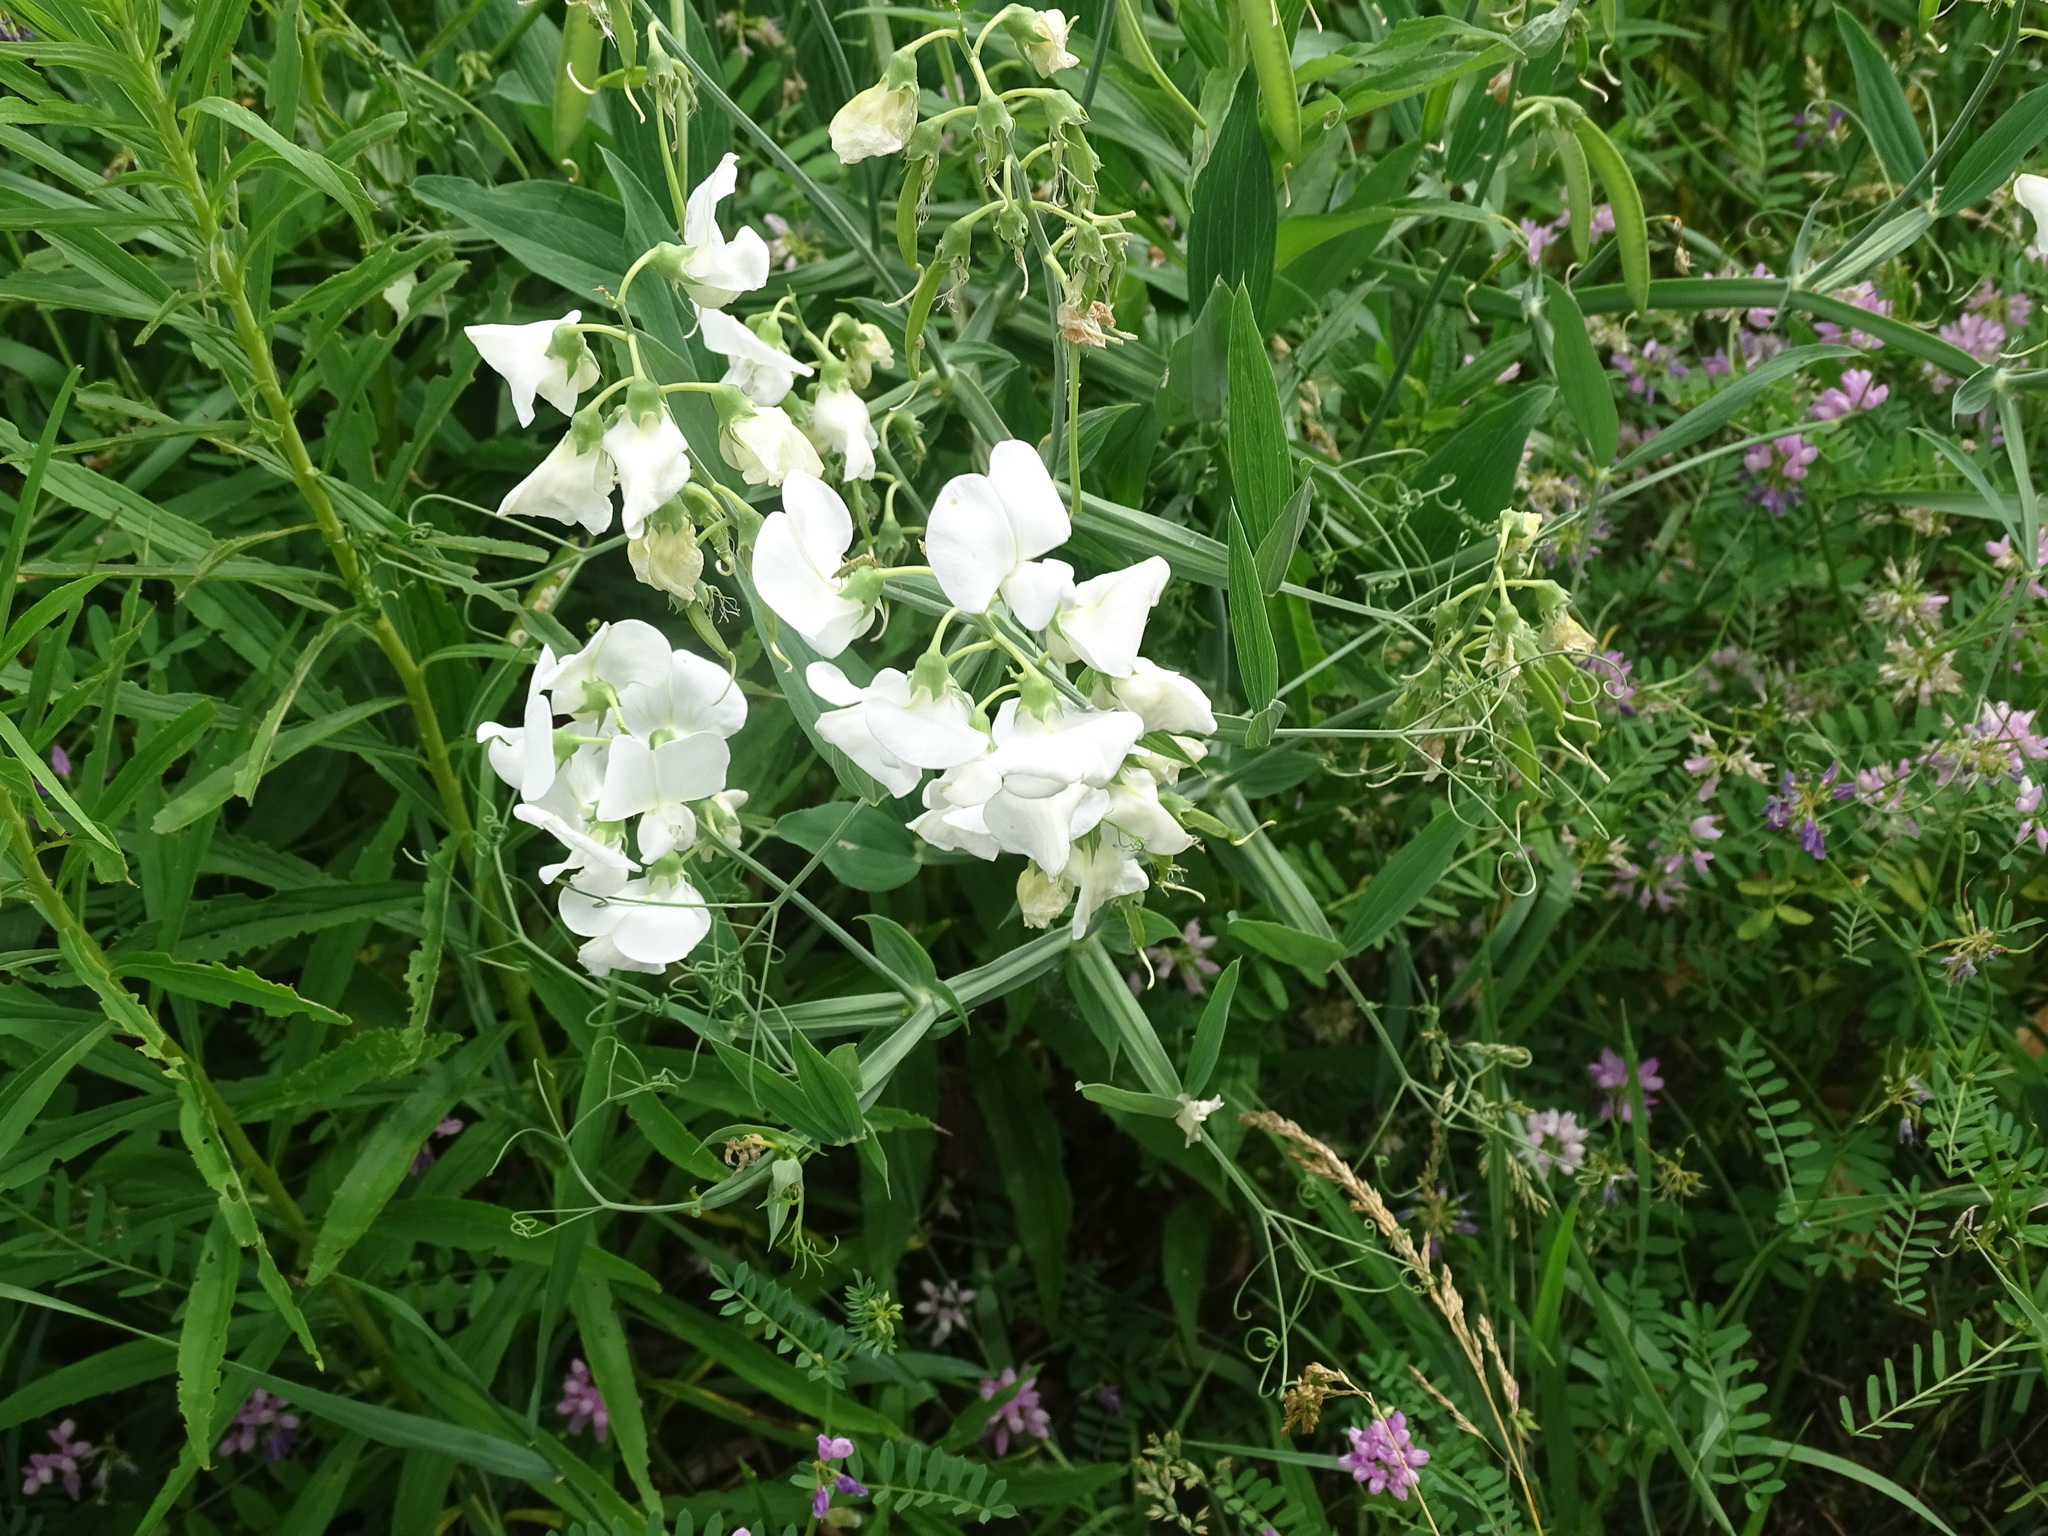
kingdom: Plantae
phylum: Tracheophyta
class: Magnoliopsida
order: Fabales
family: Fabaceae
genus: Lathyrus
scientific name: Lathyrus latifolius
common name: Perennial pea
